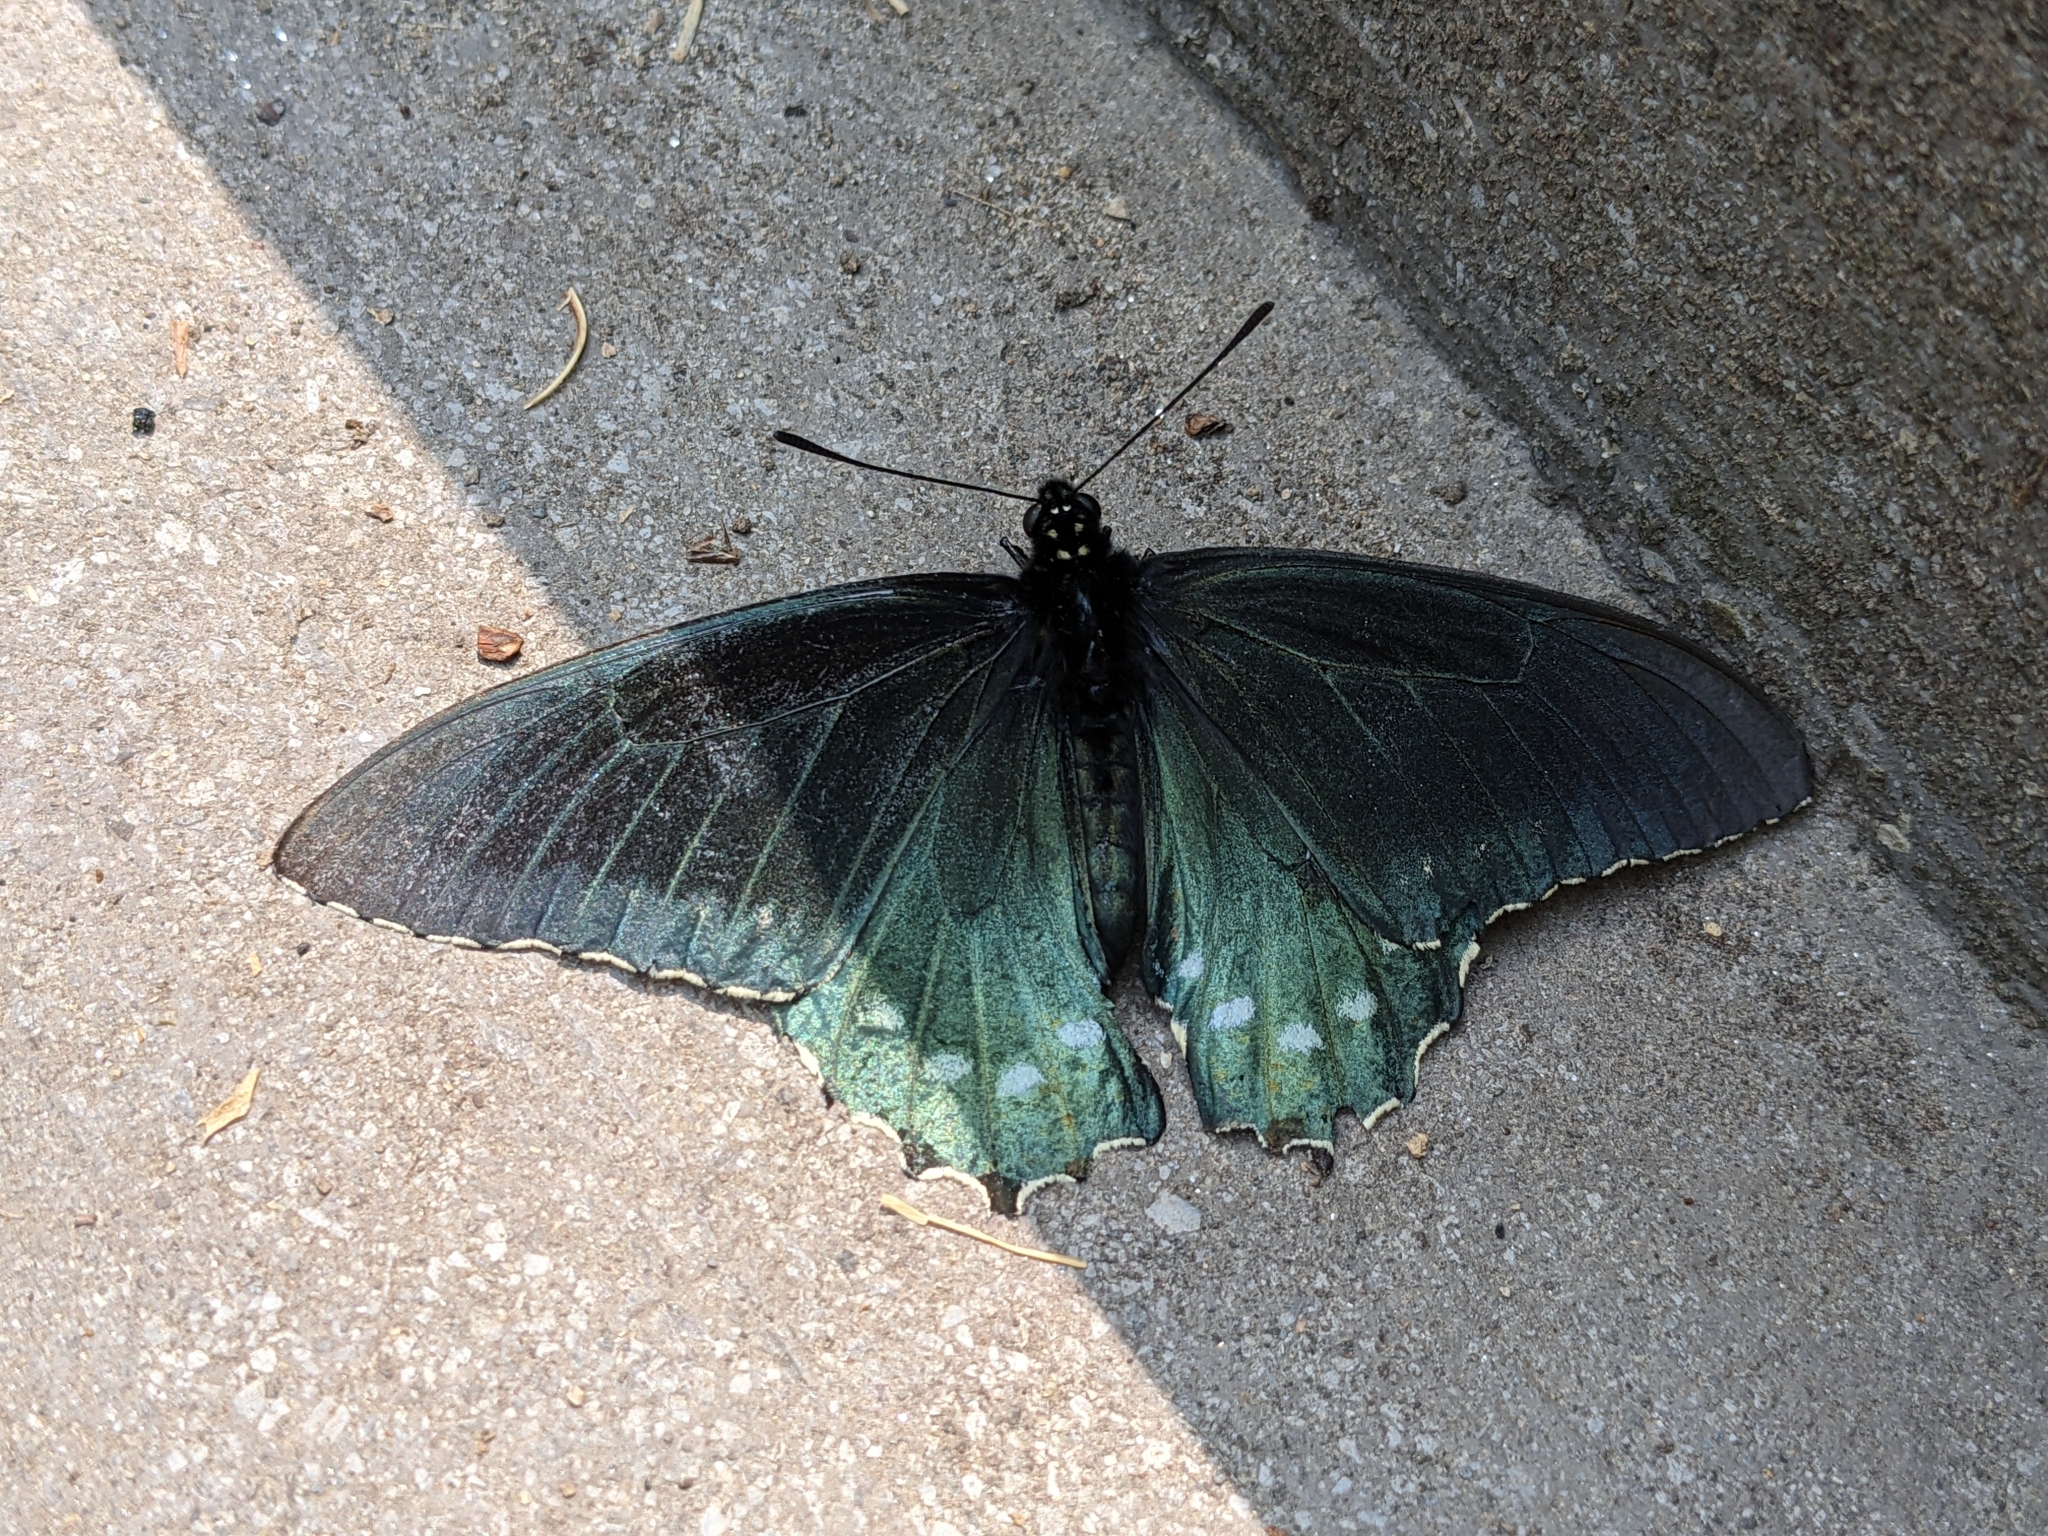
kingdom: Animalia
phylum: Arthropoda
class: Insecta
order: Lepidoptera
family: Papilionidae
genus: Battus
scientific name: Battus philenor
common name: Pipevine swallowtail
